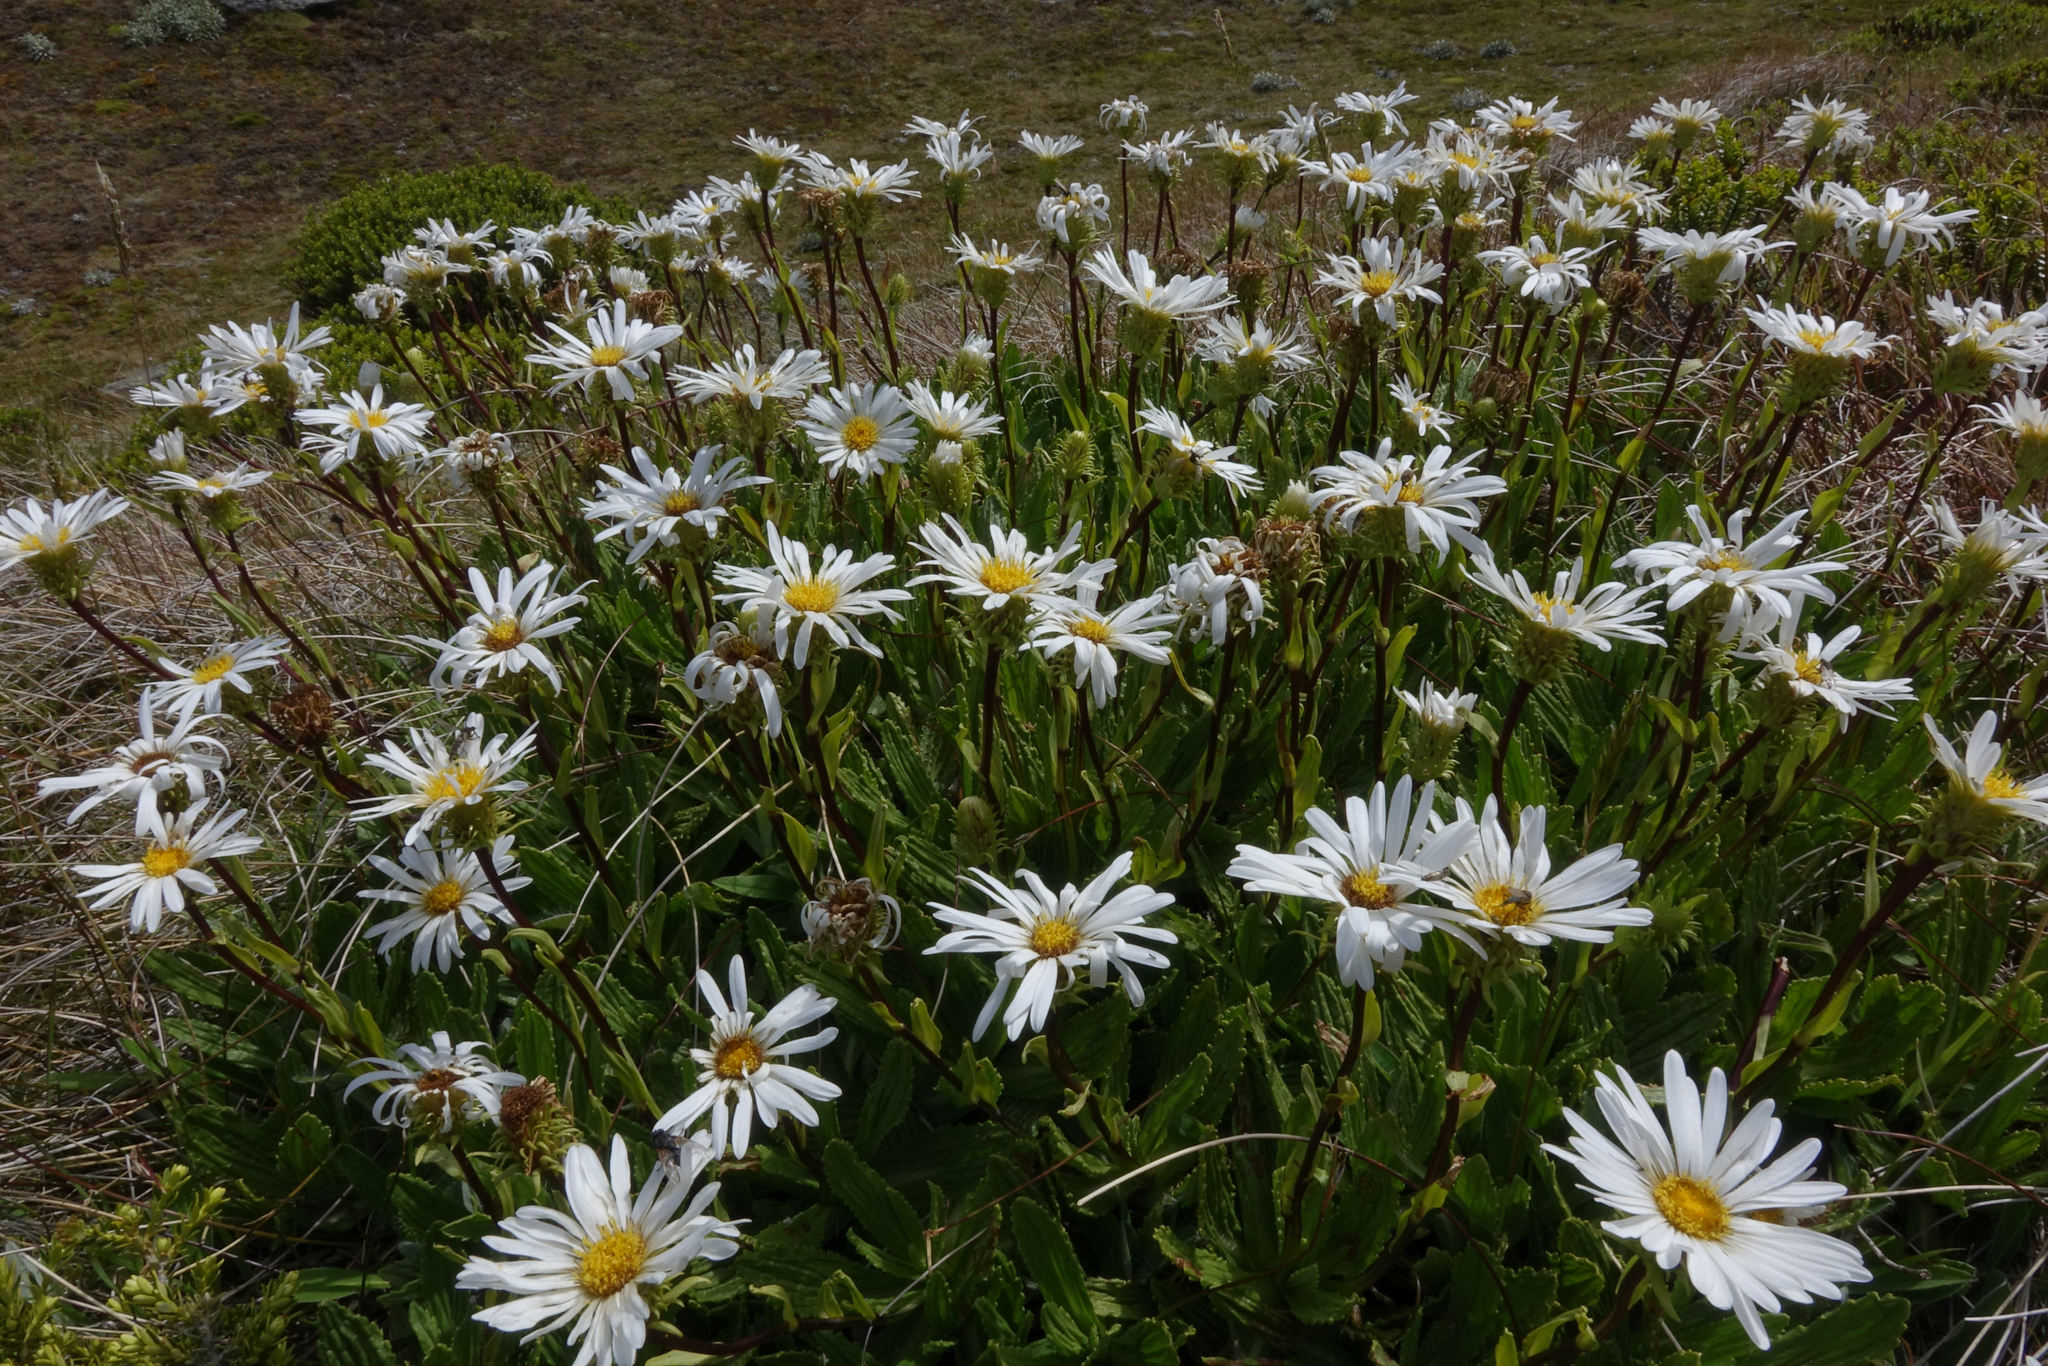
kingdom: Plantae
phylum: Tracheophyta
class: Magnoliopsida
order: Asterales
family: Asteraceae
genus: Celmisia
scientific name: Celmisia prorepens
